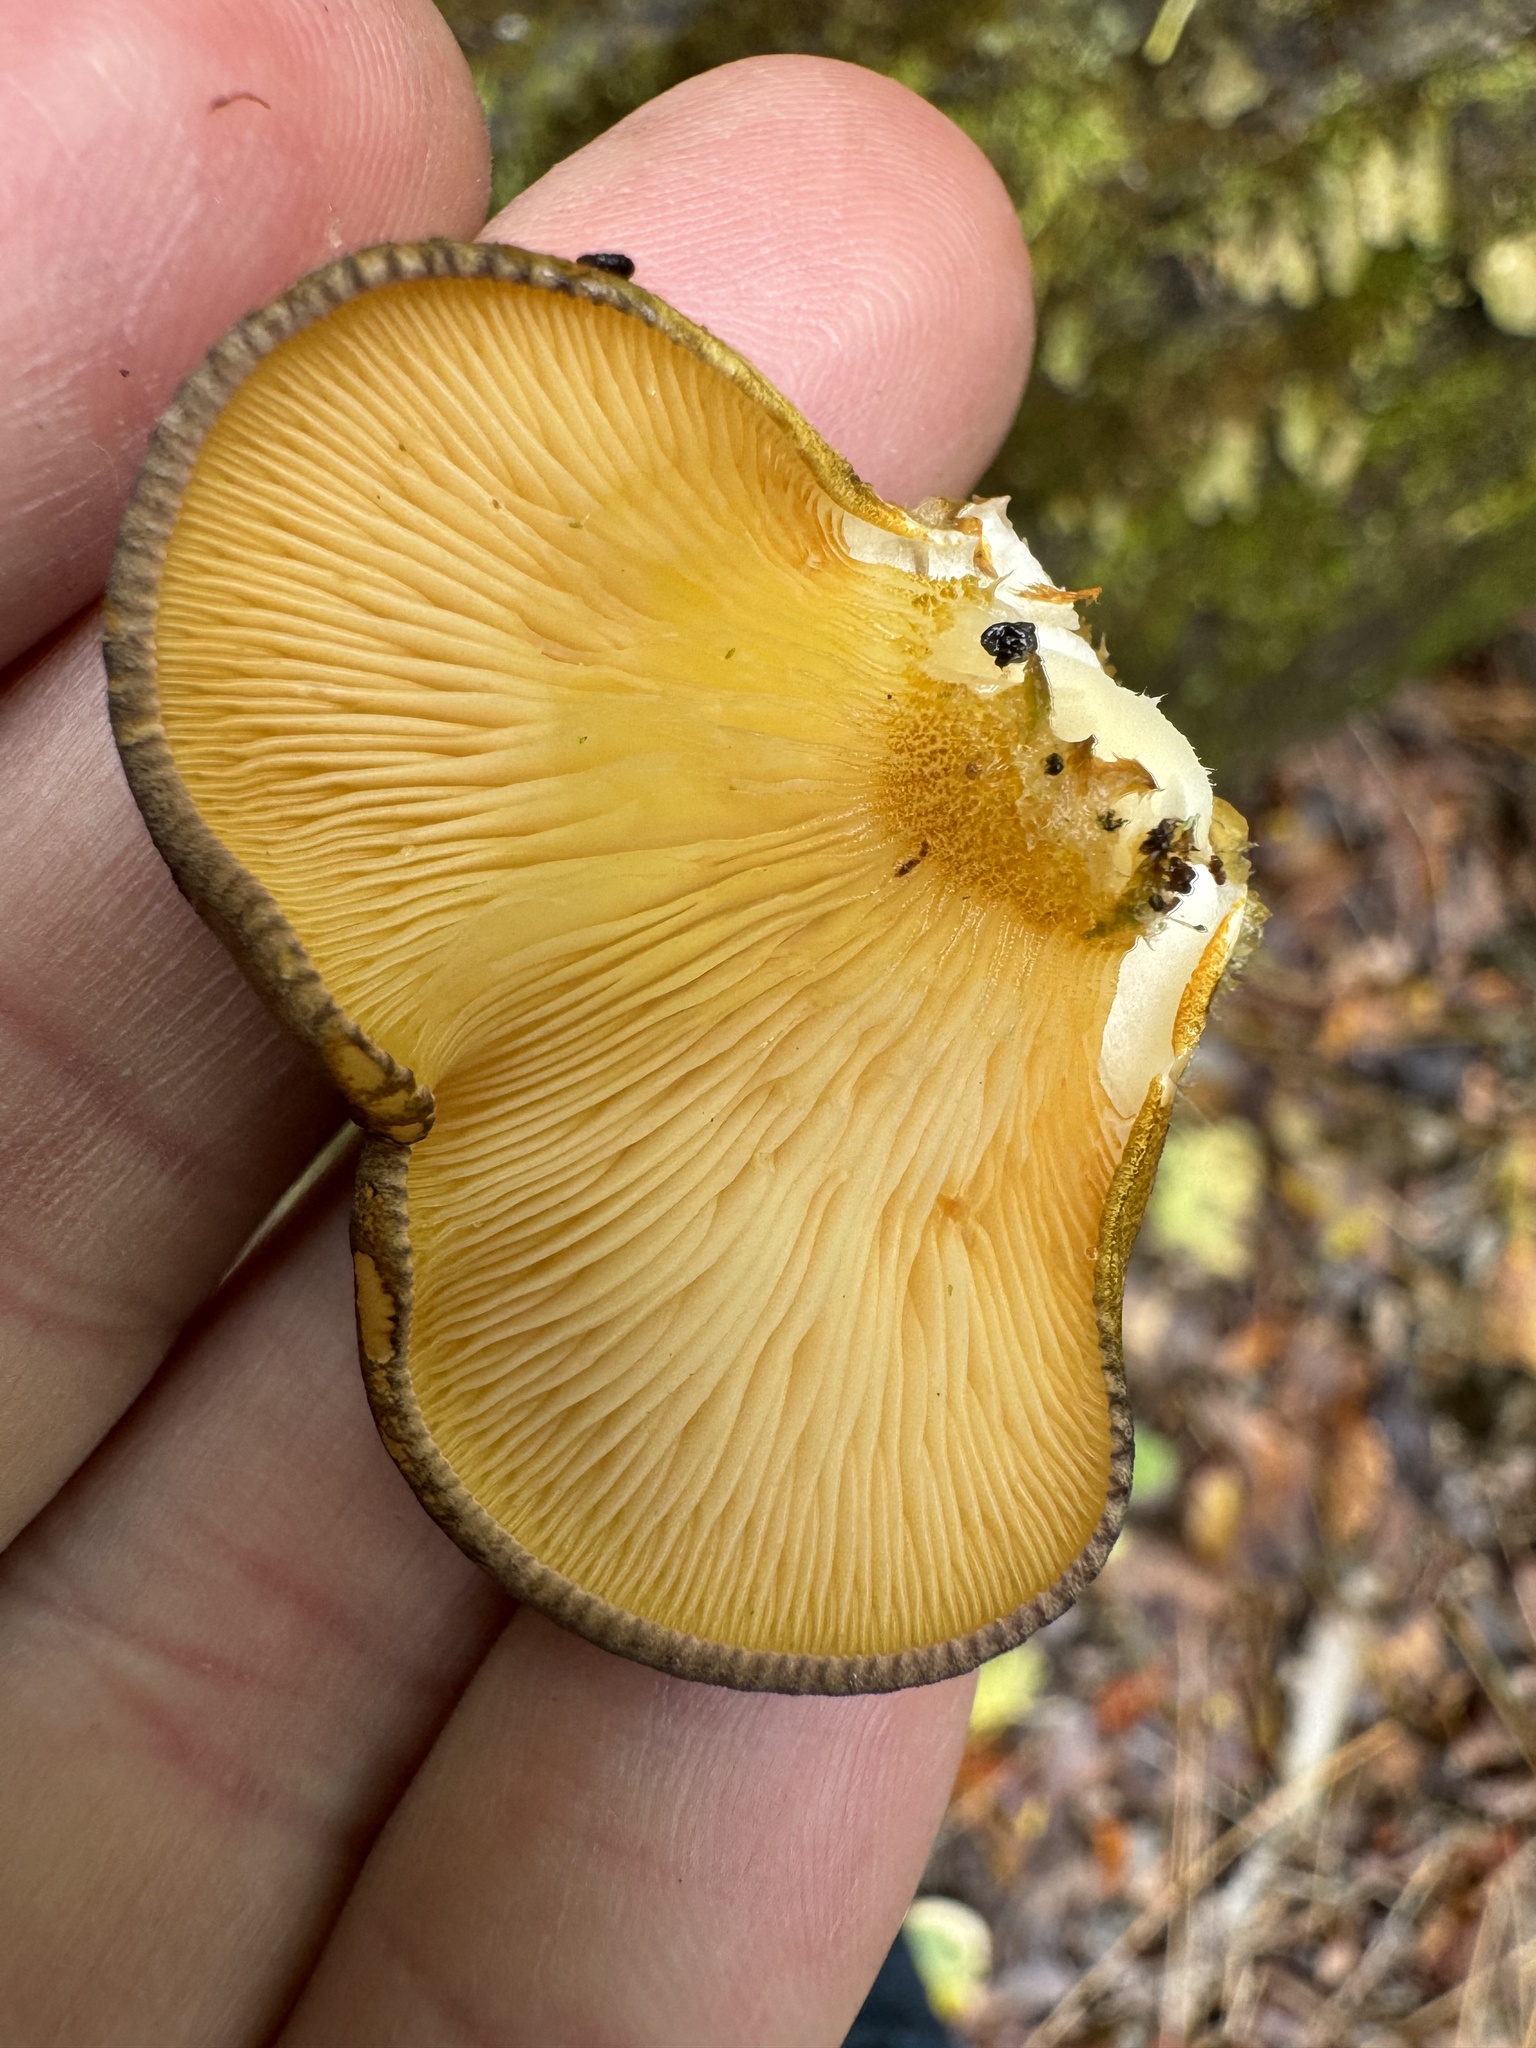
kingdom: Fungi
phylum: Basidiomycota
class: Agaricomycetes
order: Agaricales
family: Sarcomyxaceae
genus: Sarcomyxa
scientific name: Sarcomyxa serotina
